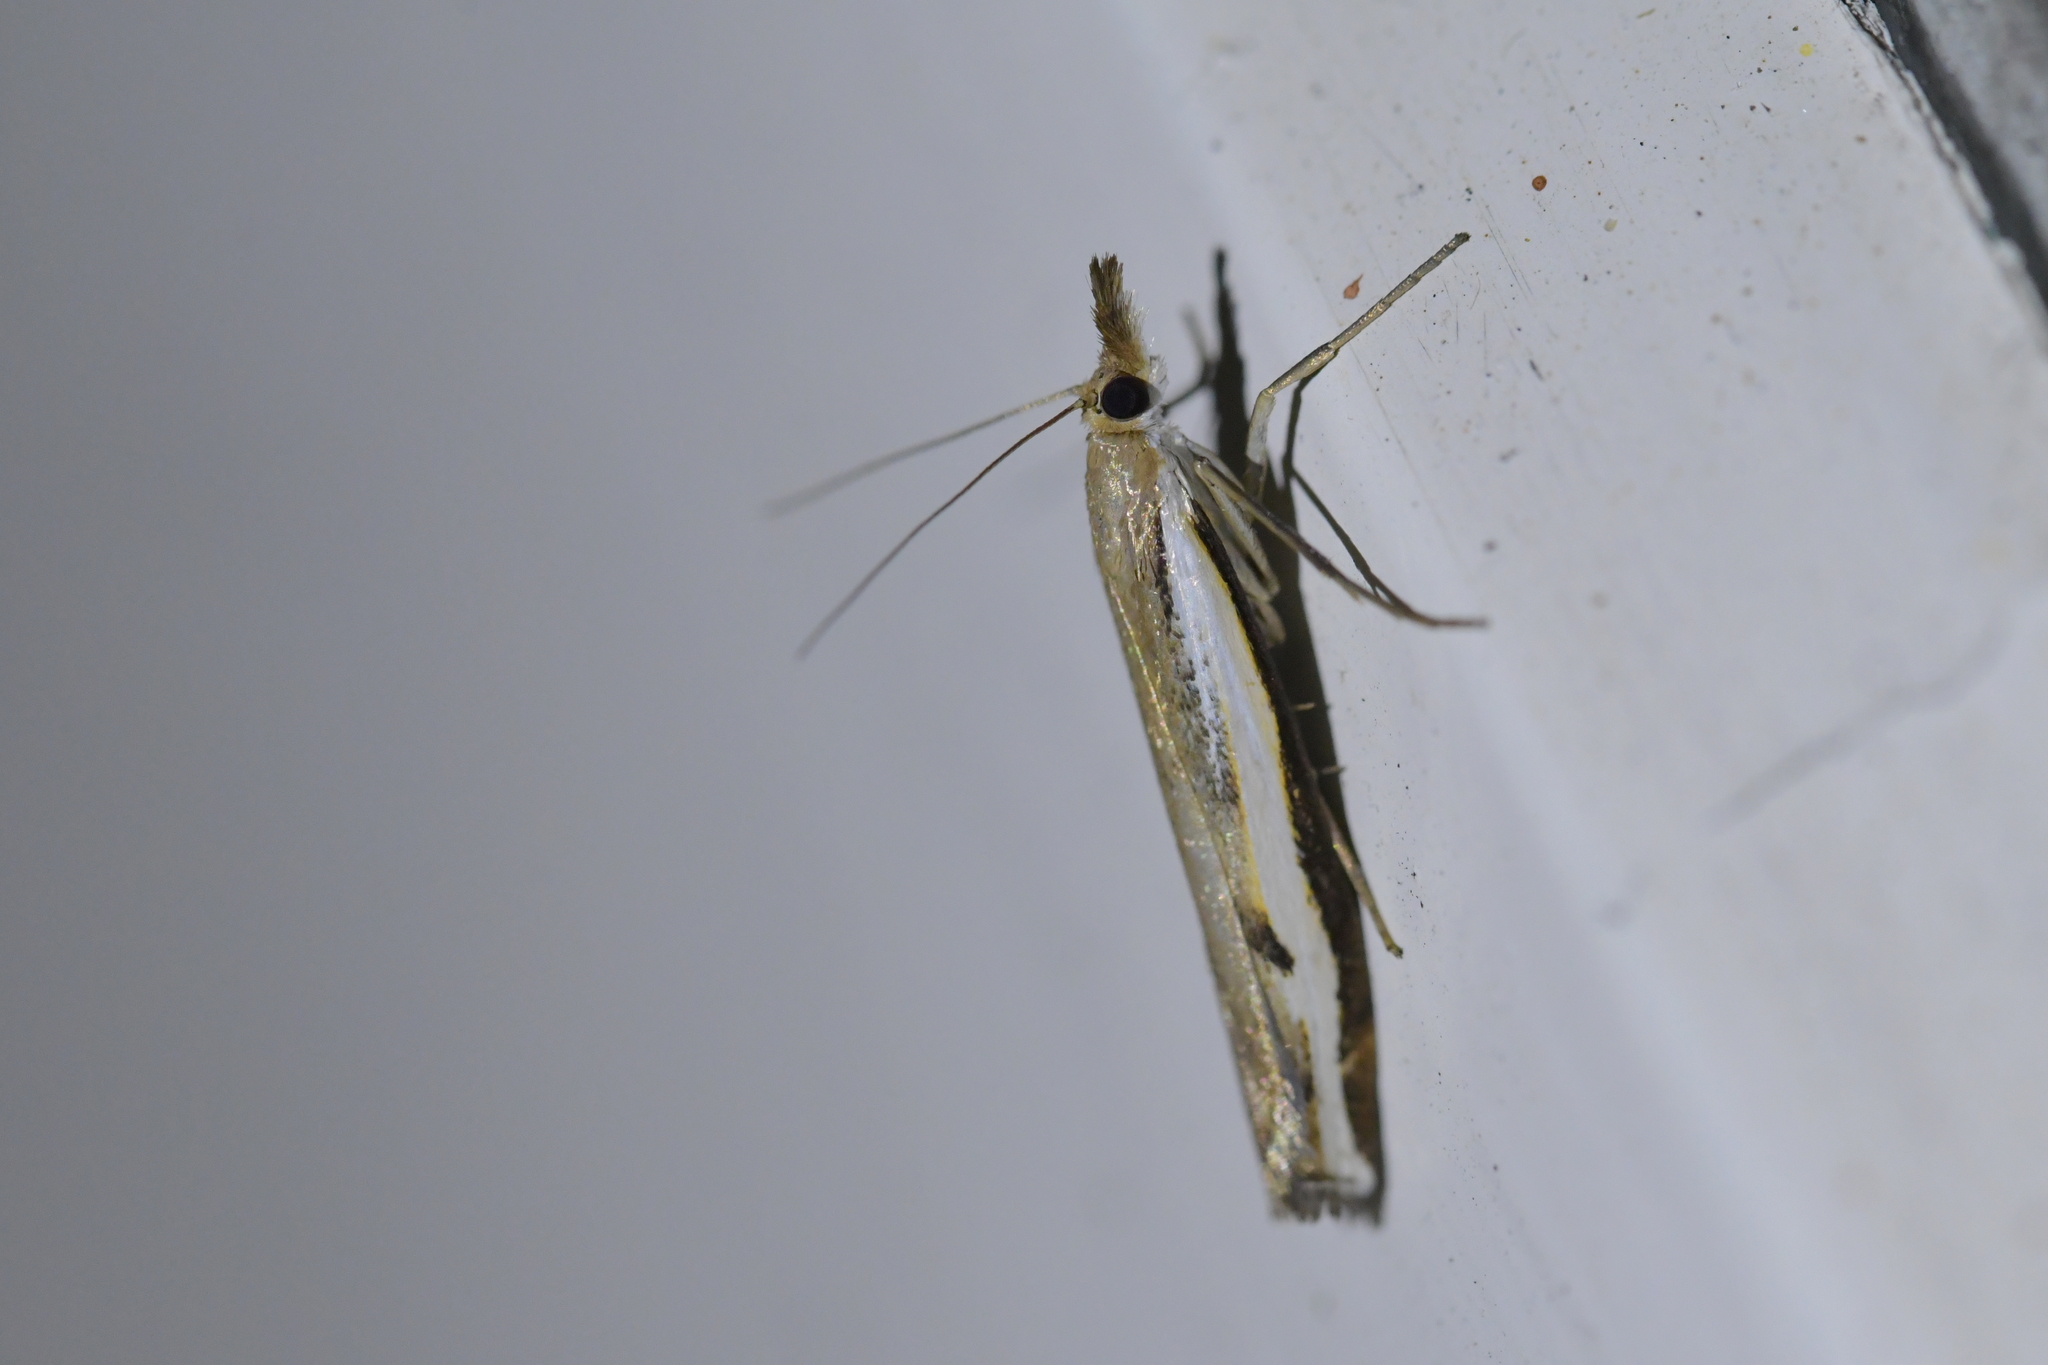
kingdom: Animalia
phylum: Arthropoda
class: Insecta
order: Lepidoptera
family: Crambidae
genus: Orocrambus
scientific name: Orocrambus flexuosellus
